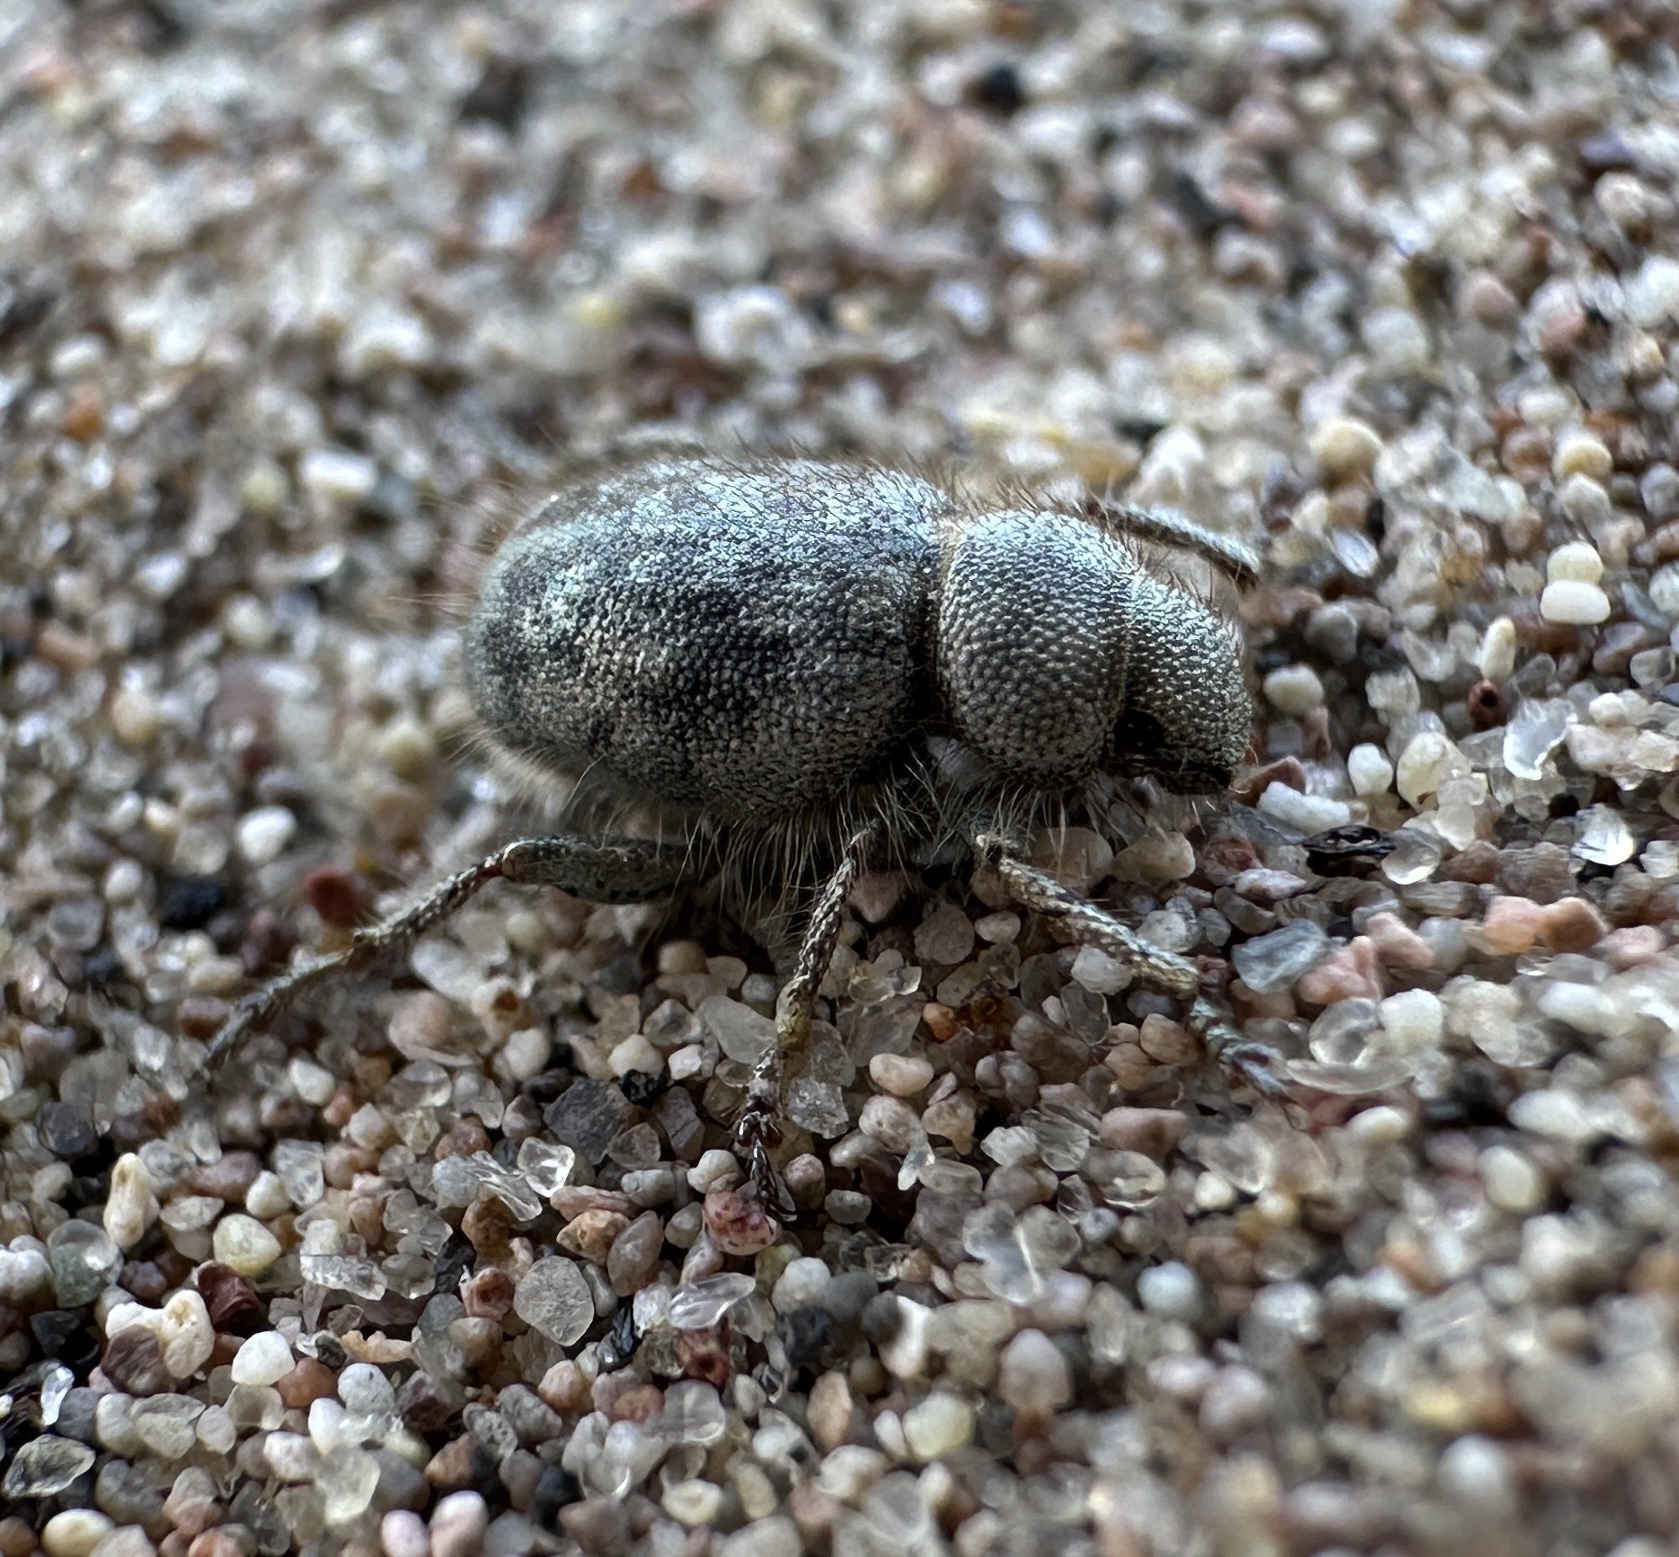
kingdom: Animalia
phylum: Arthropoda
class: Insecta
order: Coleoptera
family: Curculionidae
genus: Miloderes
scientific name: Miloderes amargosensis
